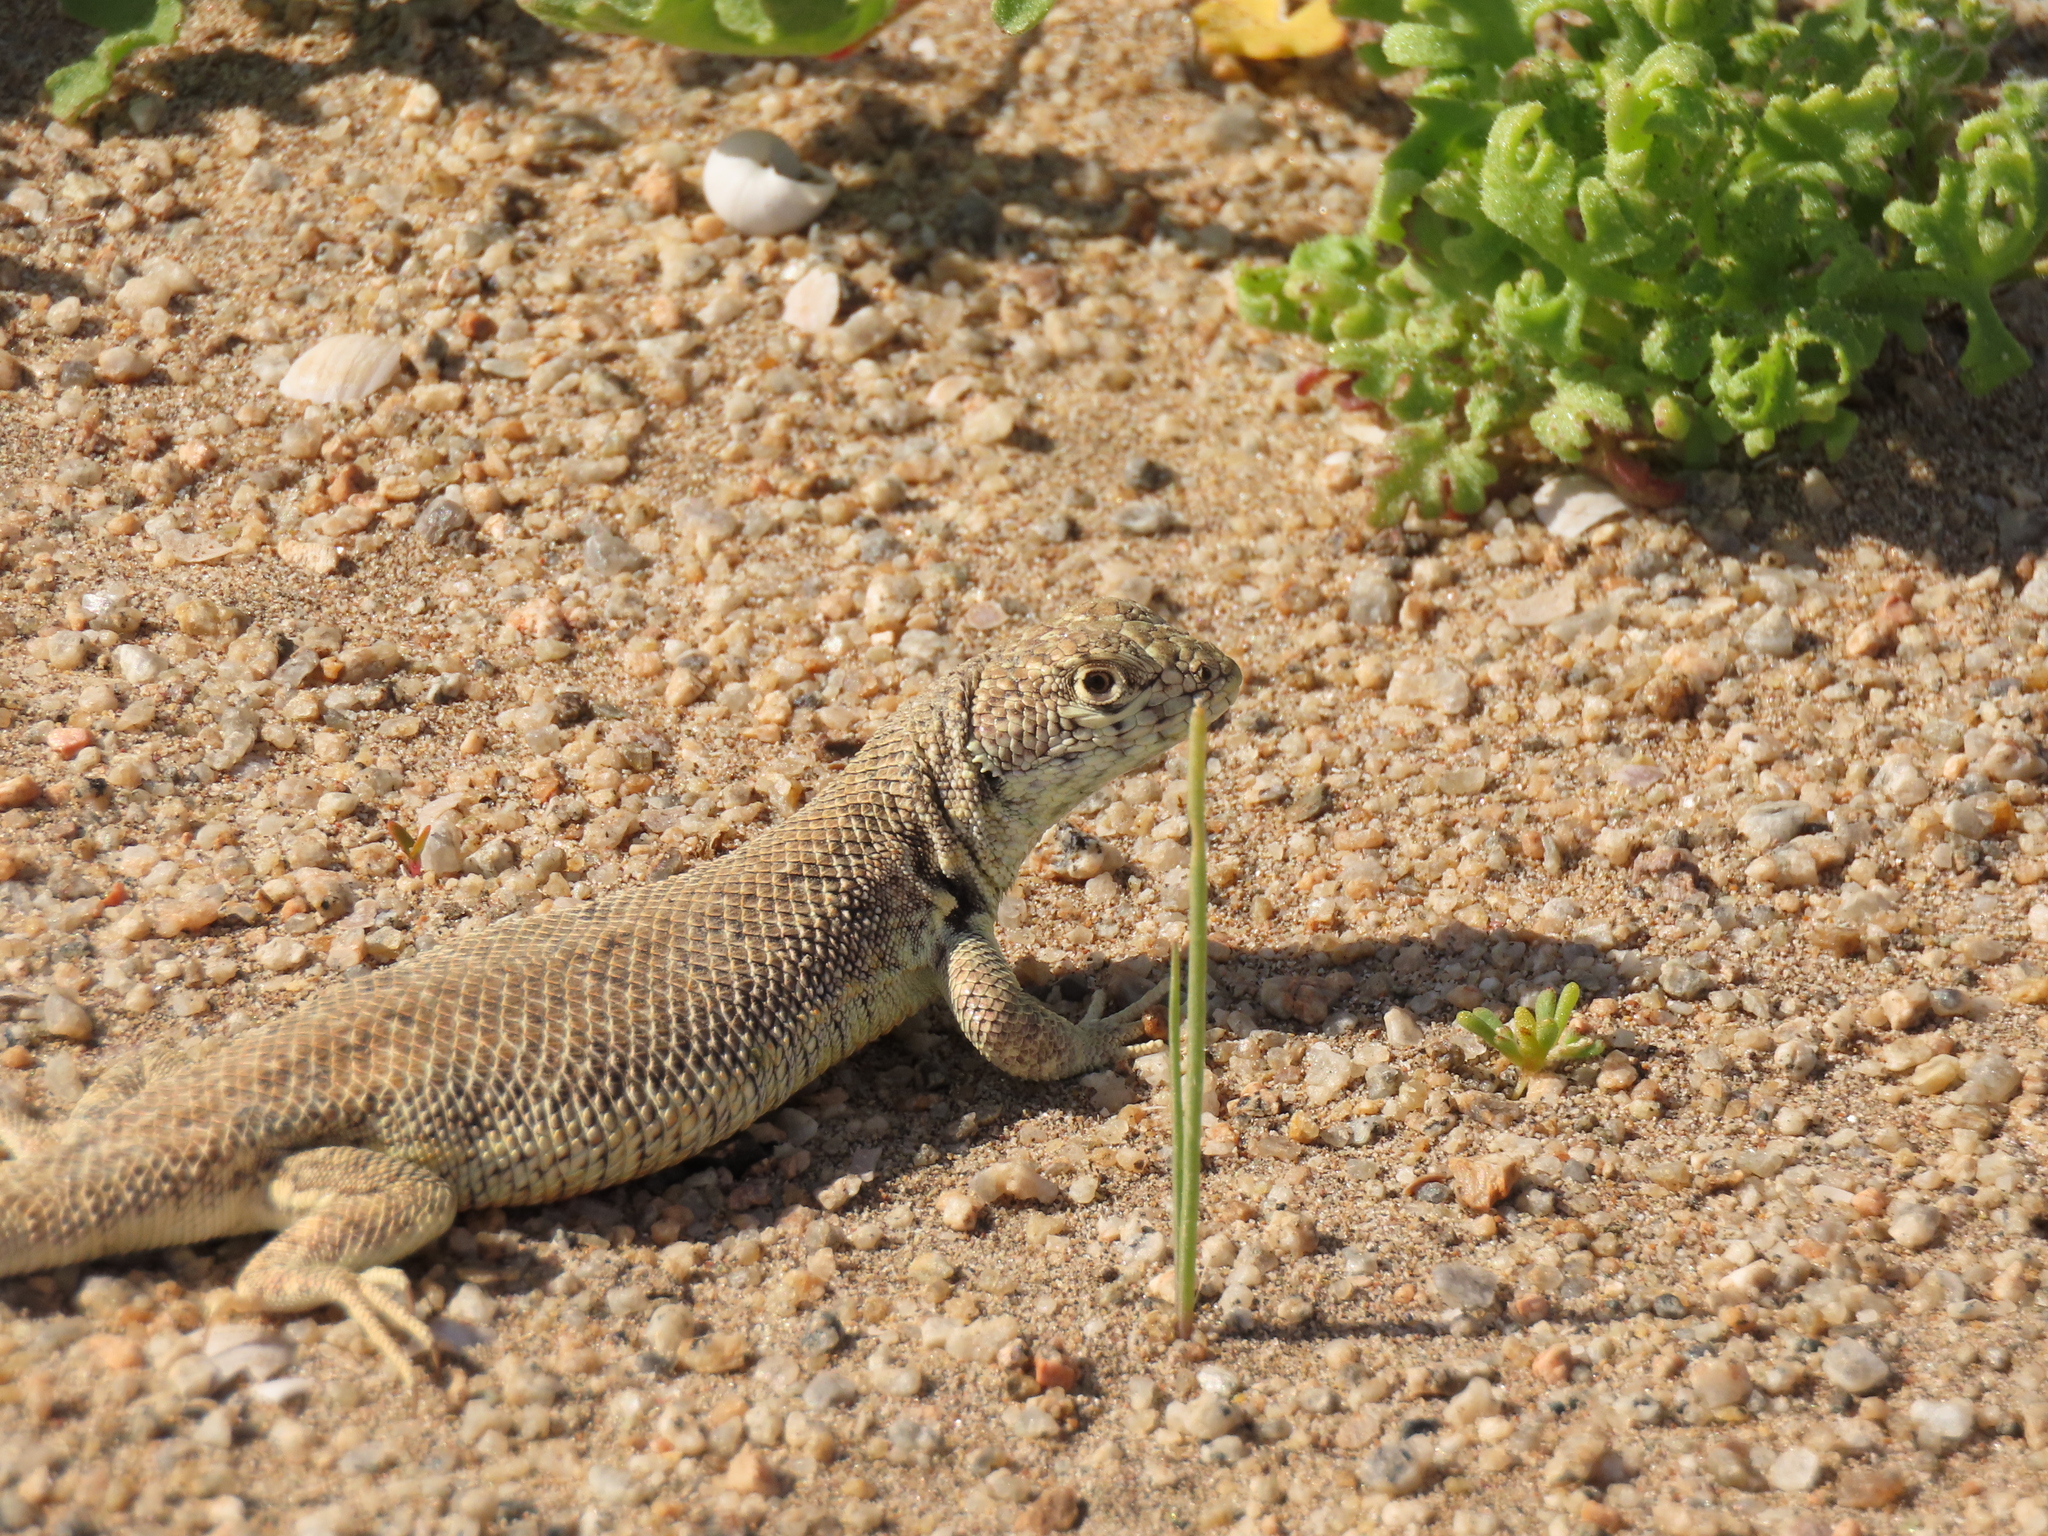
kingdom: Animalia
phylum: Chordata
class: Squamata
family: Liolaemidae
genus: Liolaemus
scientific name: Liolaemus nigromaculatus
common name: Many-spotted tree iguana
